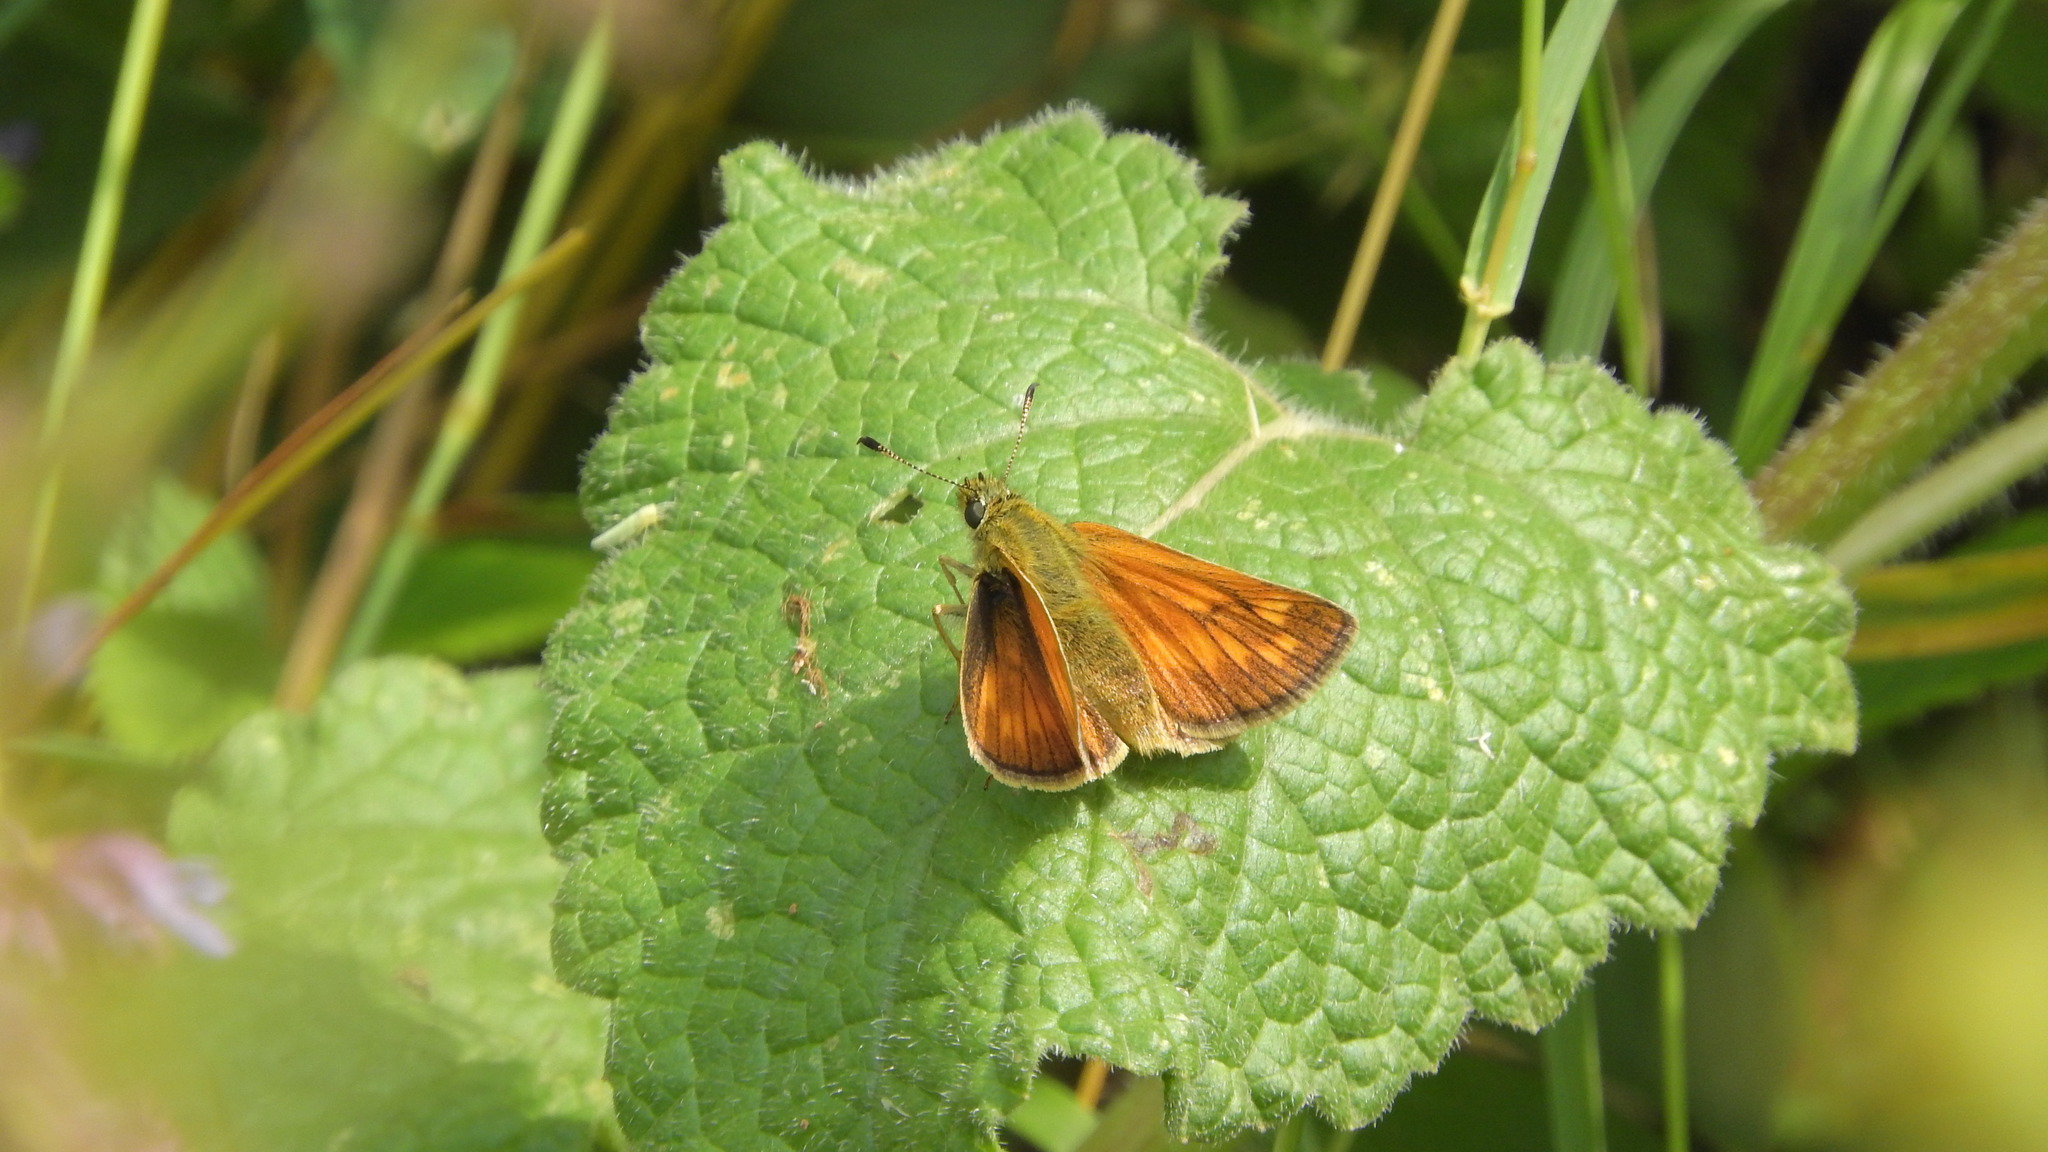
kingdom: Animalia
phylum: Arthropoda
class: Insecta
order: Lepidoptera
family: Hesperiidae
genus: Ochlodes
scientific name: Ochlodes venata
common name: Large skipper
